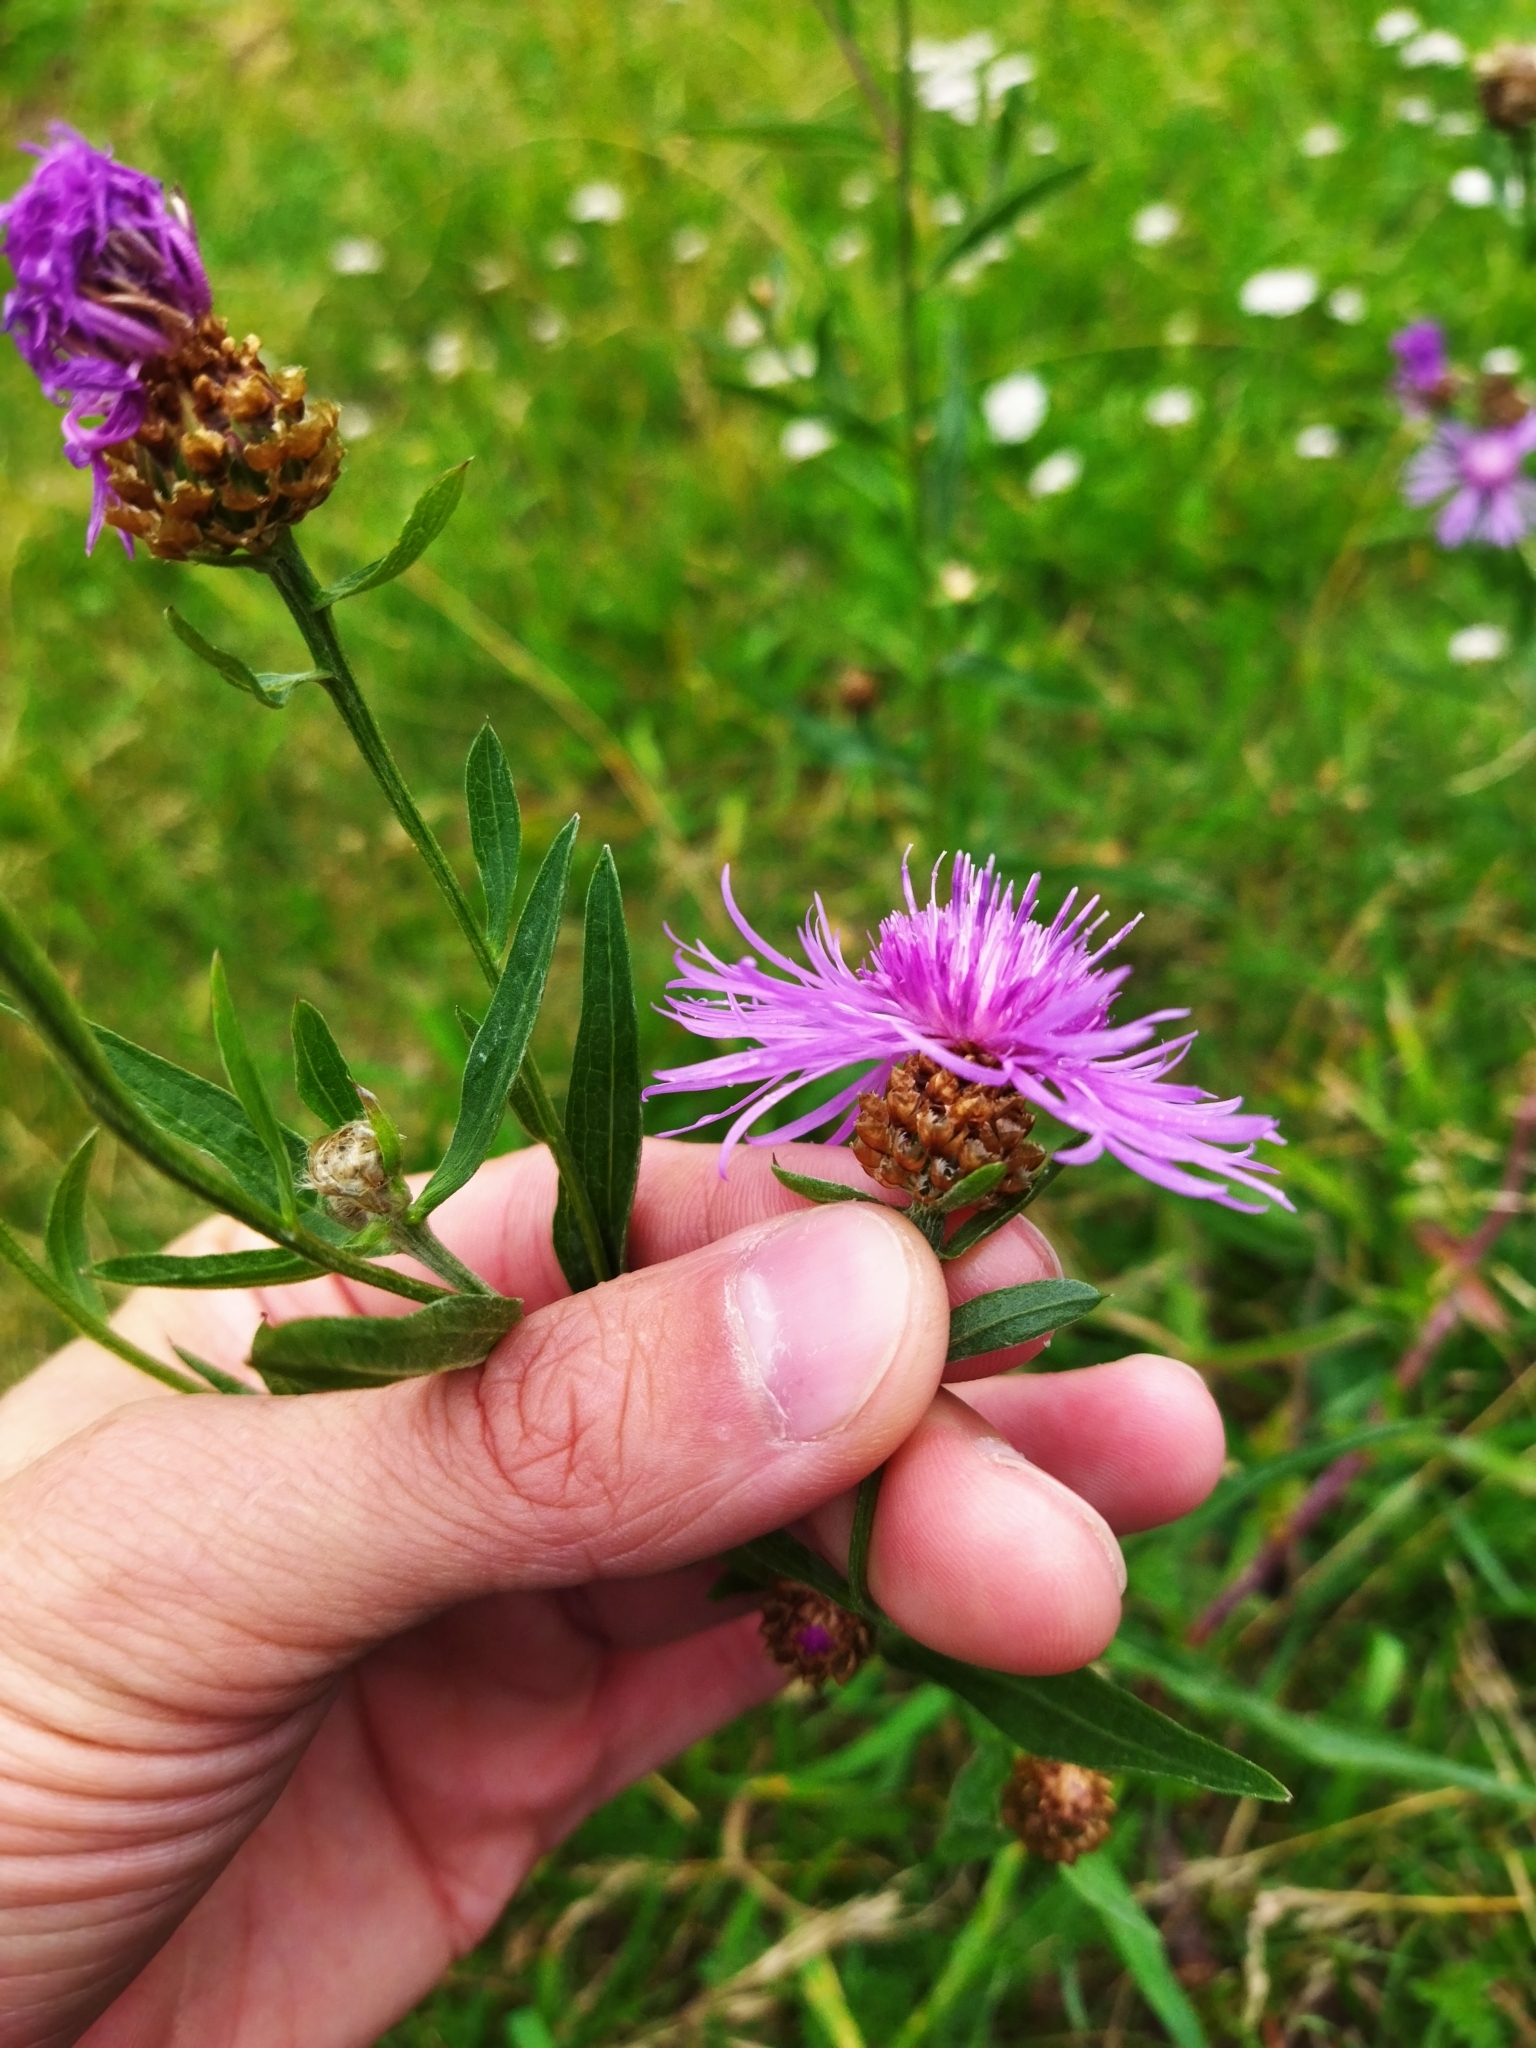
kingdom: Plantae
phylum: Tracheophyta
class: Magnoliopsida
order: Asterales
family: Asteraceae
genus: Centaurea
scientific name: Centaurea jacea
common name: Brown knapweed
